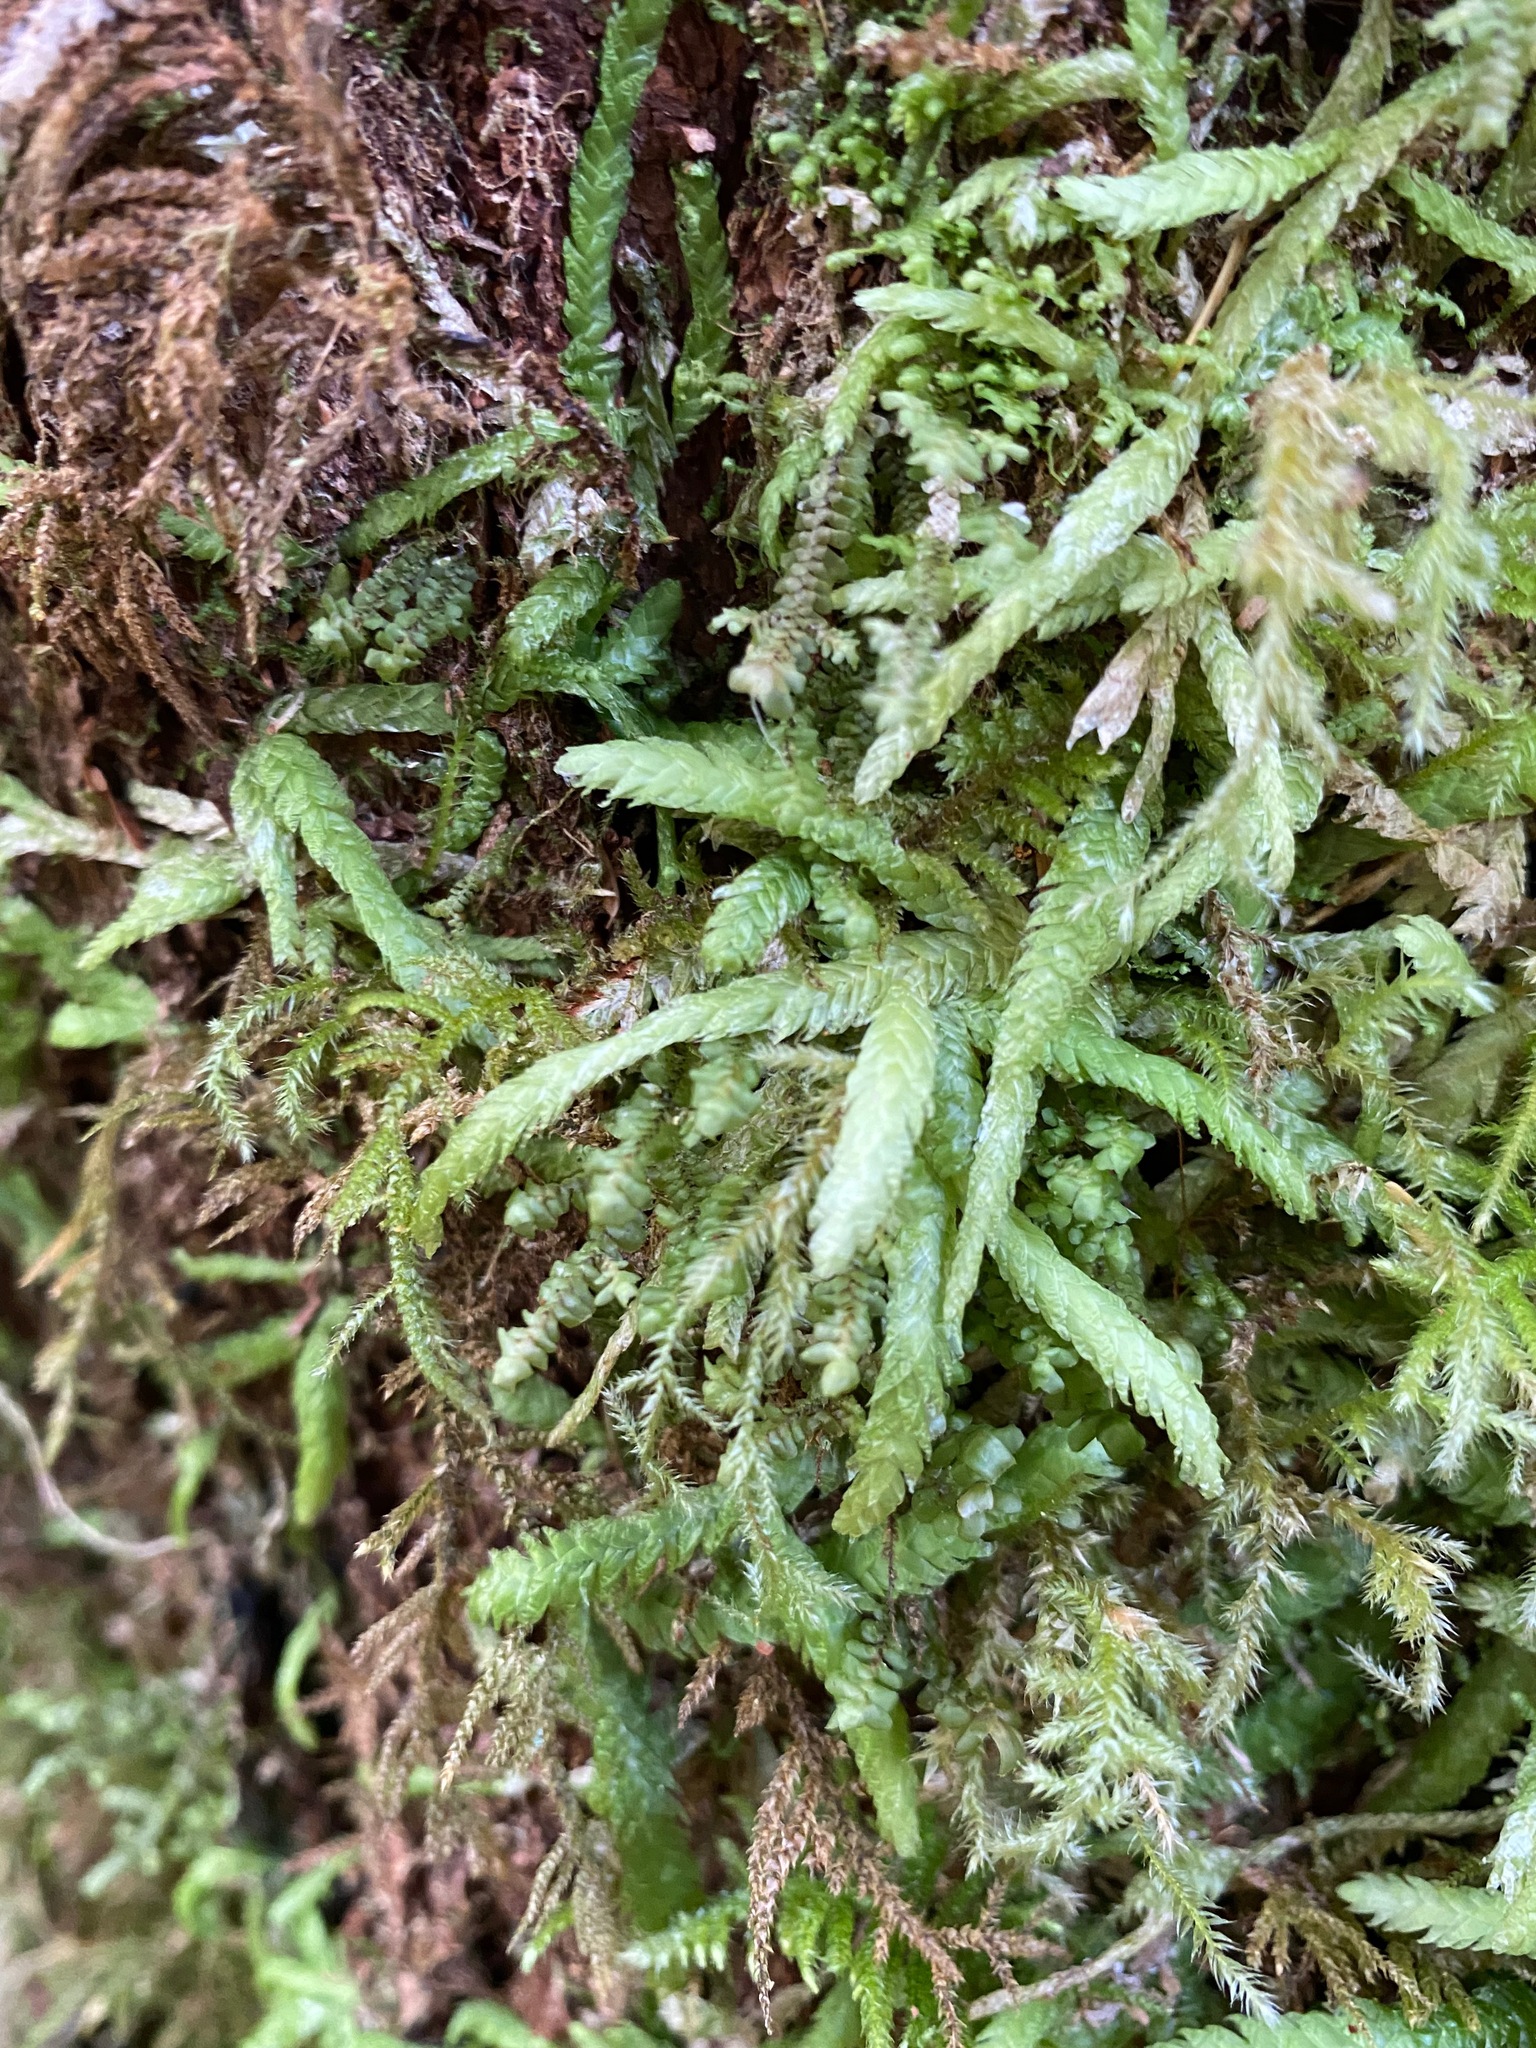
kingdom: Plantae
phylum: Bryophyta
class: Bryopsida
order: Hypnales
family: Plagiotheciaceae
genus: Plagiothecium
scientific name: Plagiothecium undulatum
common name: Waved silk-moss
